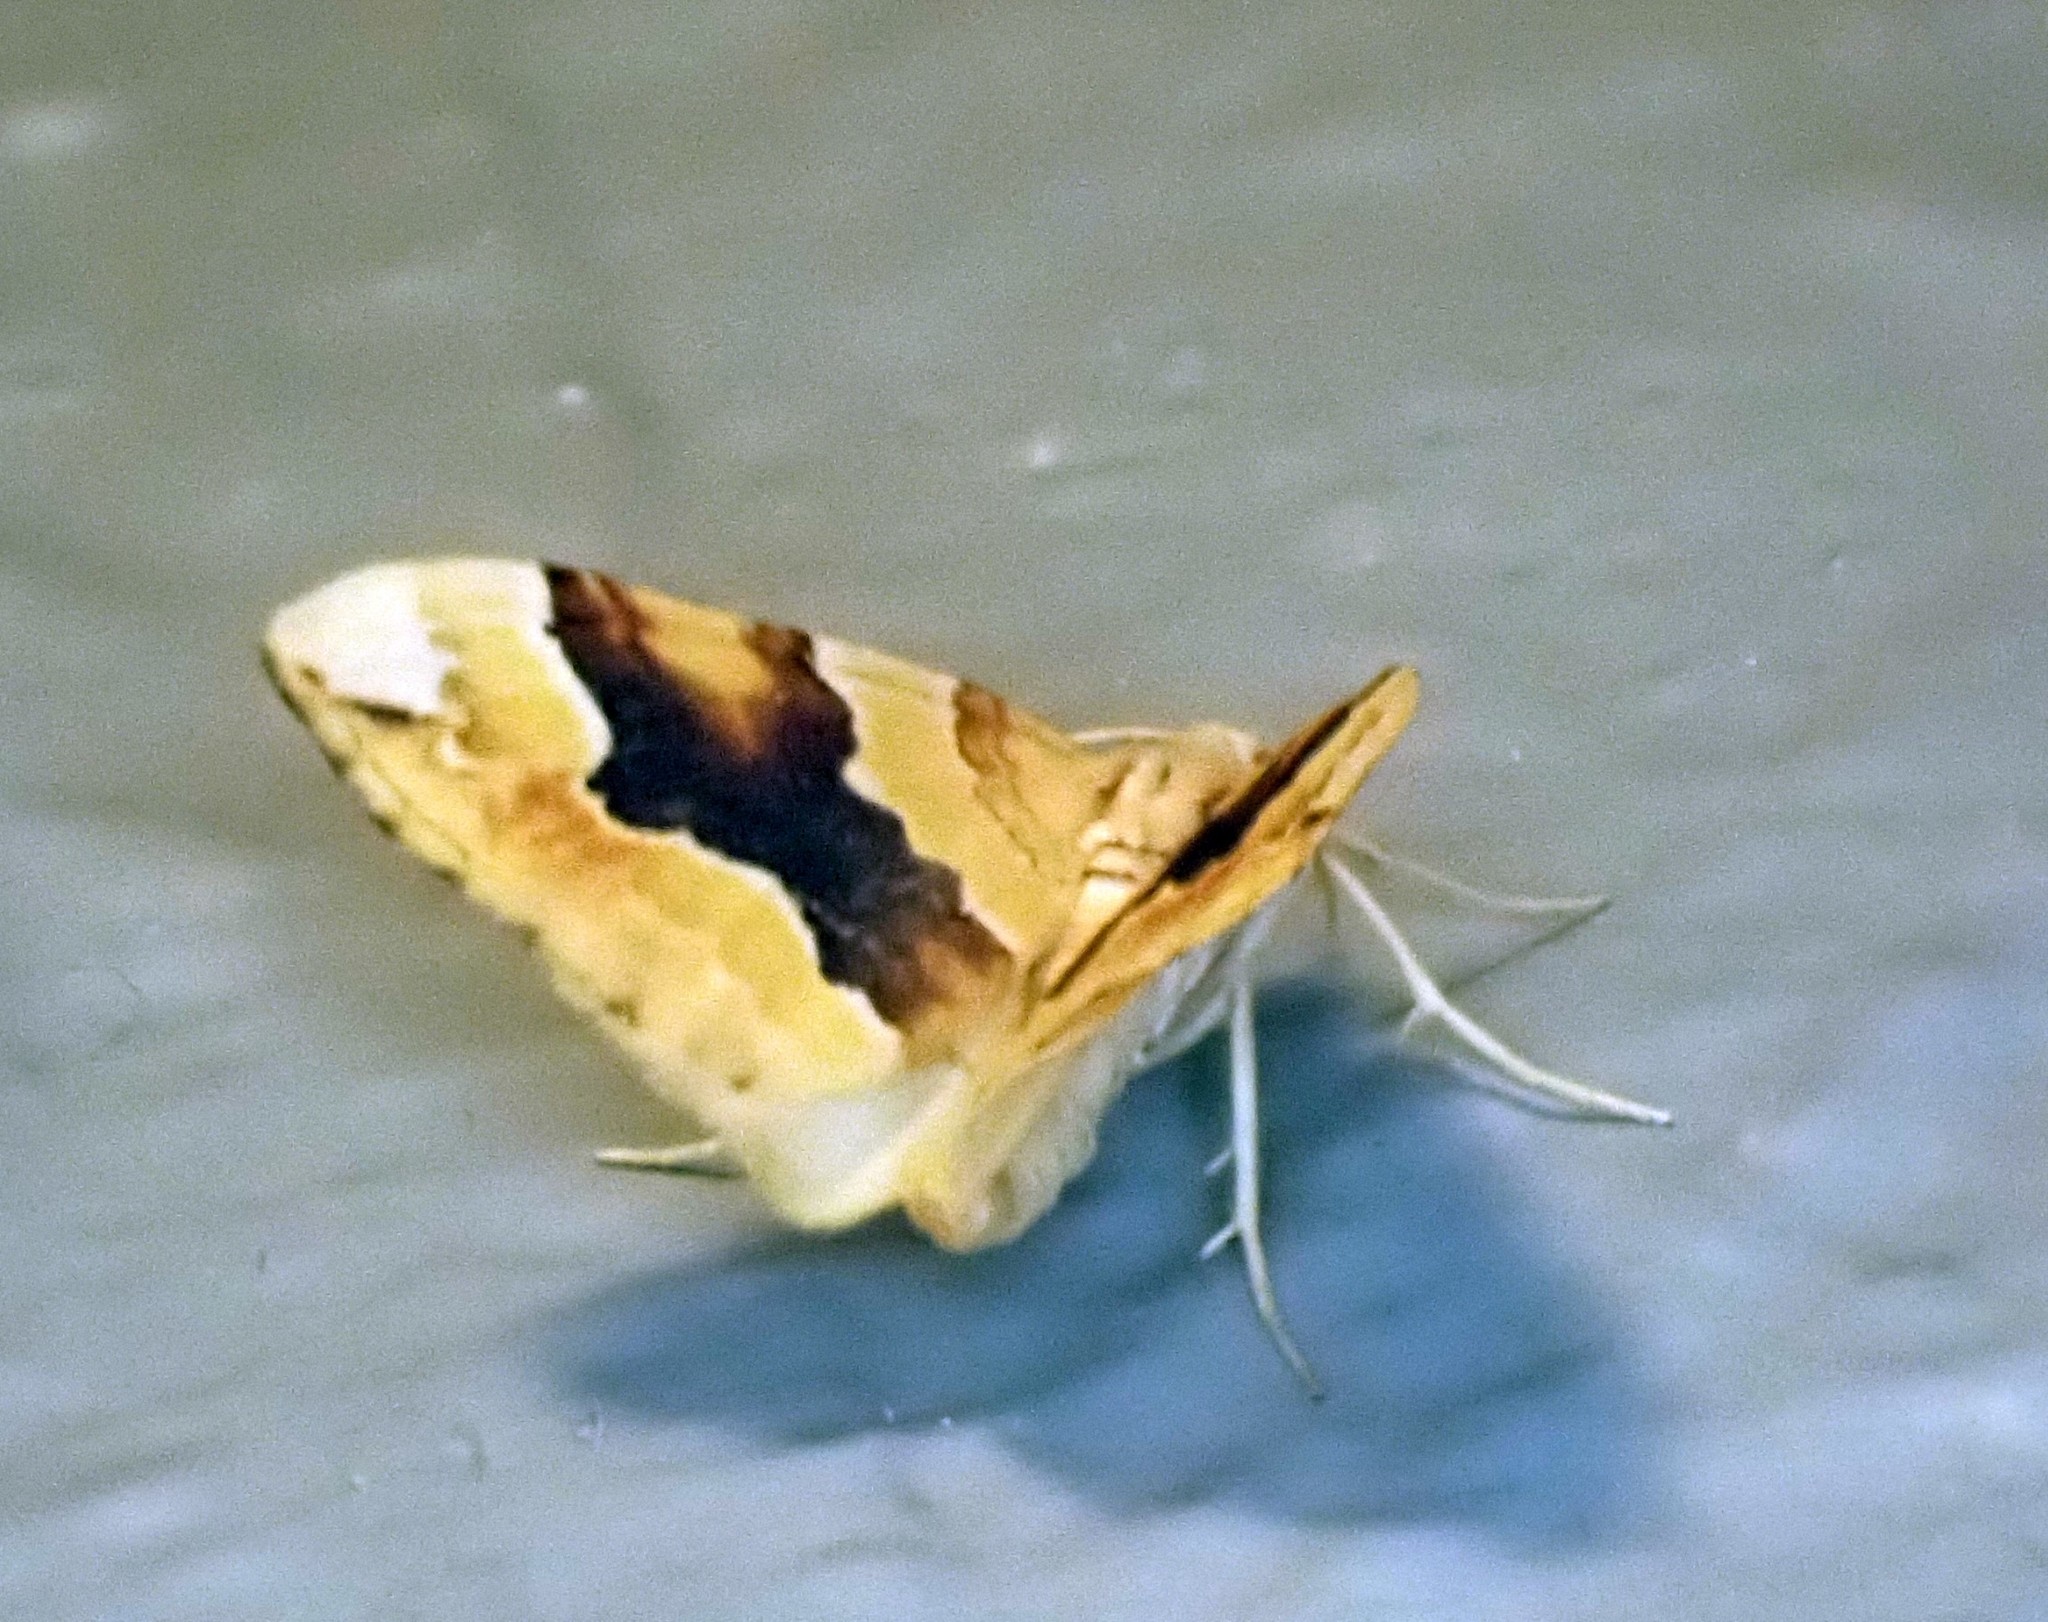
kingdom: Animalia
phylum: Arthropoda
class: Insecta
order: Lepidoptera
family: Geometridae
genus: Cidaria
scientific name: Cidaria fulvata
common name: Barred yellow
